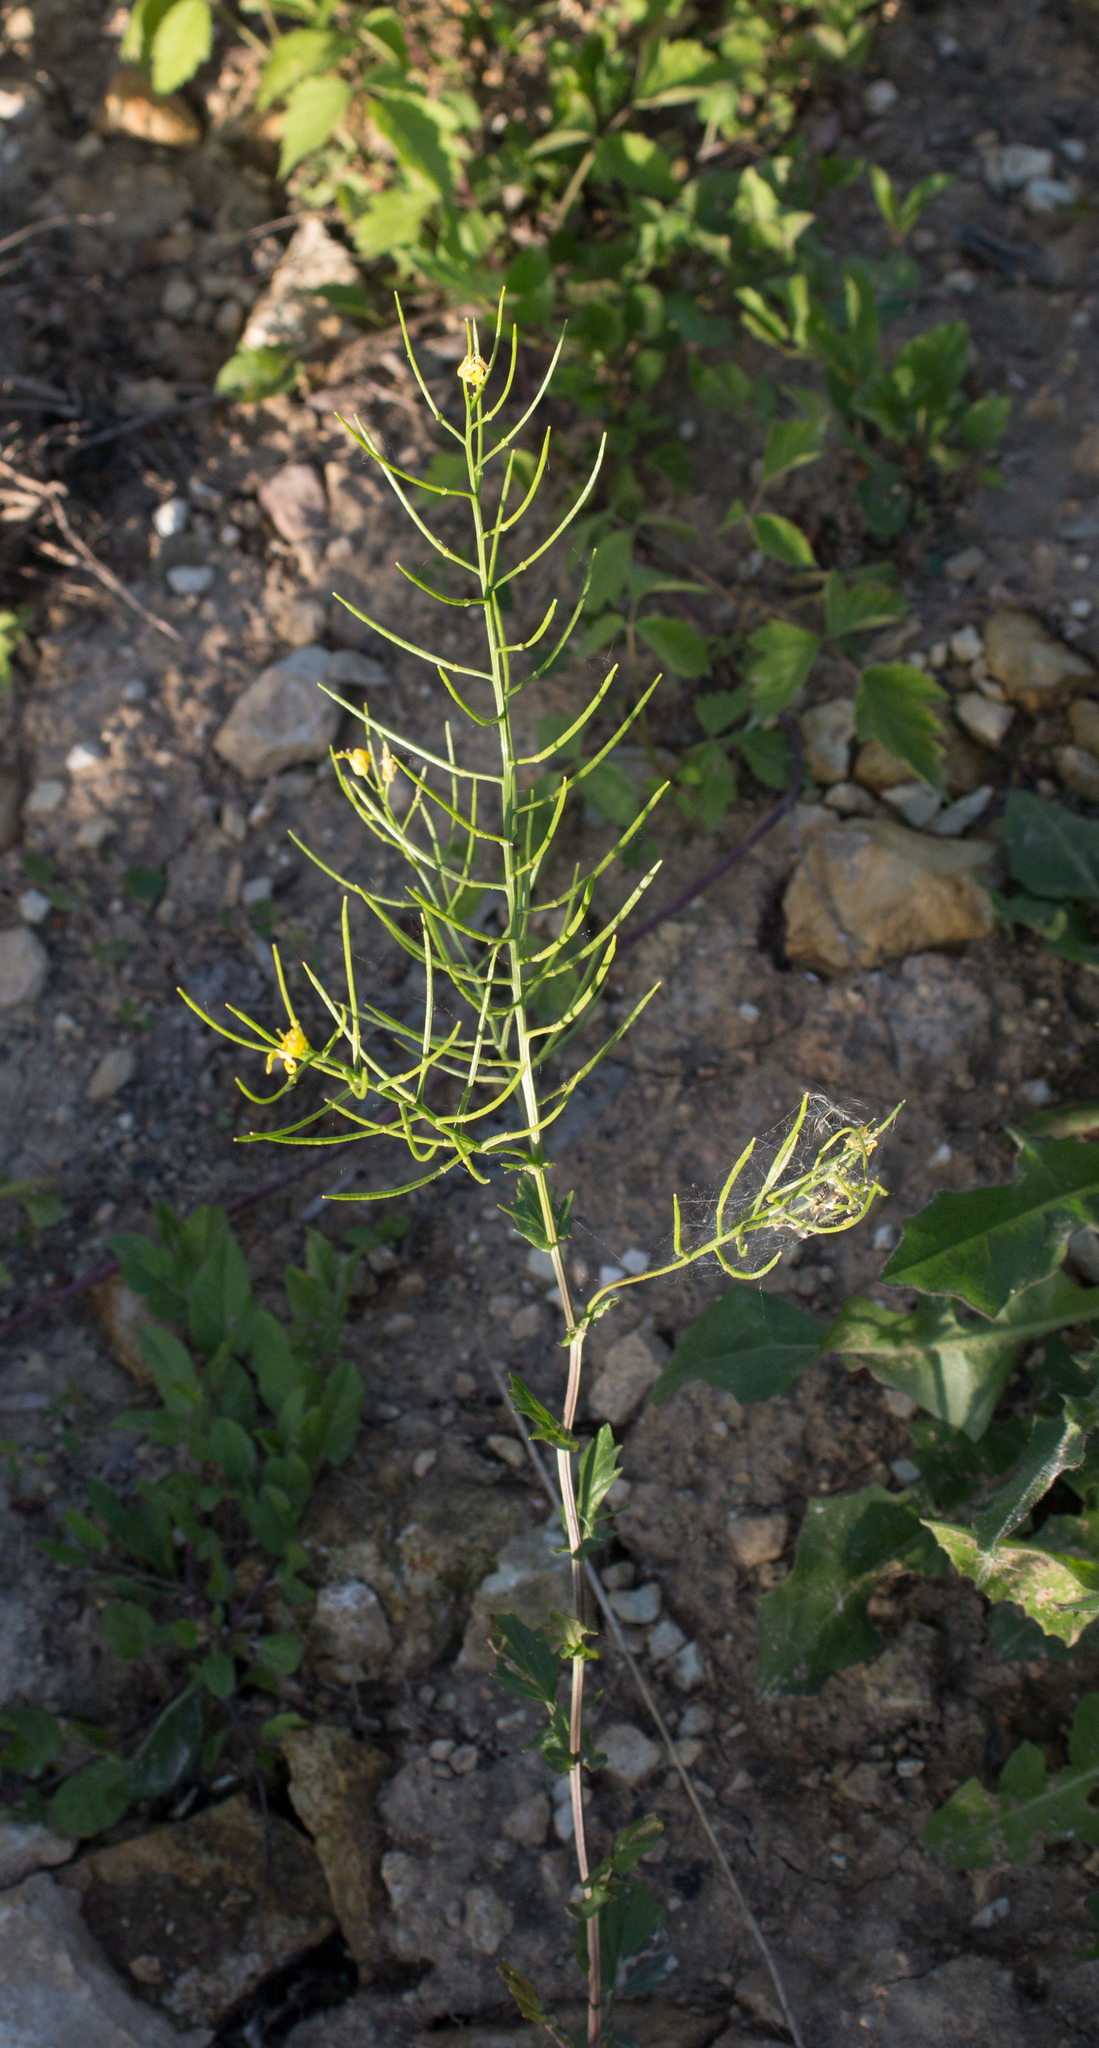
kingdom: Plantae
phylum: Tracheophyta
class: Magnoliopsida
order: Brassicales
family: Brassicaceae
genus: Barbarea
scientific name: Barbarea vulgaris
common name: Cressy-greens
